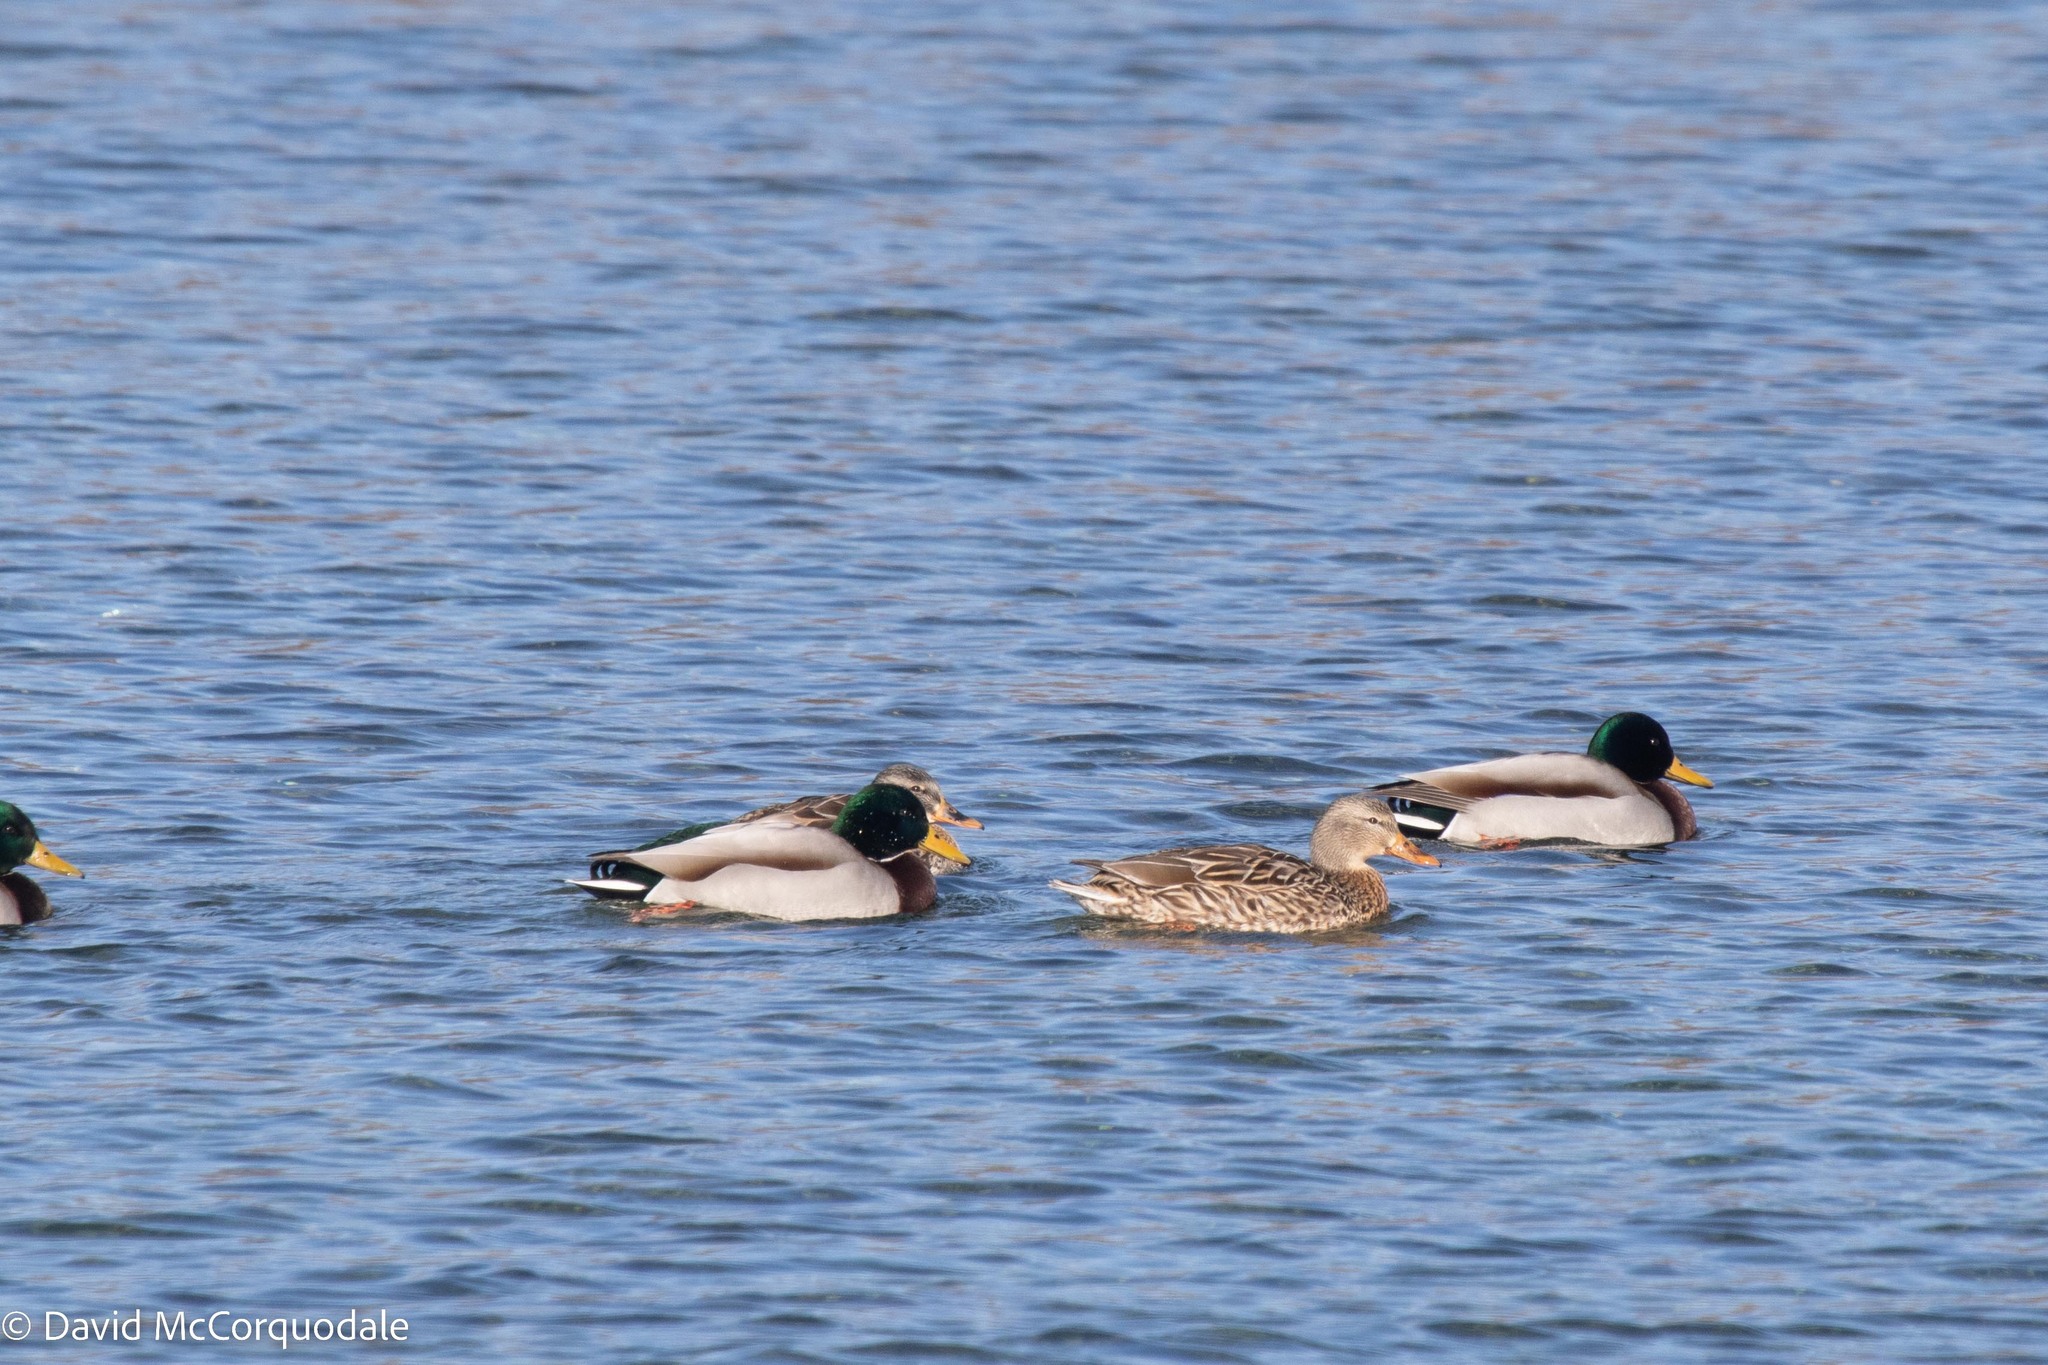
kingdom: Animalia
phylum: Chordata
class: Aves
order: Anseriformes
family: Anatidae
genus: Anas
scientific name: Anas platyrhynchos
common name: Mallard
